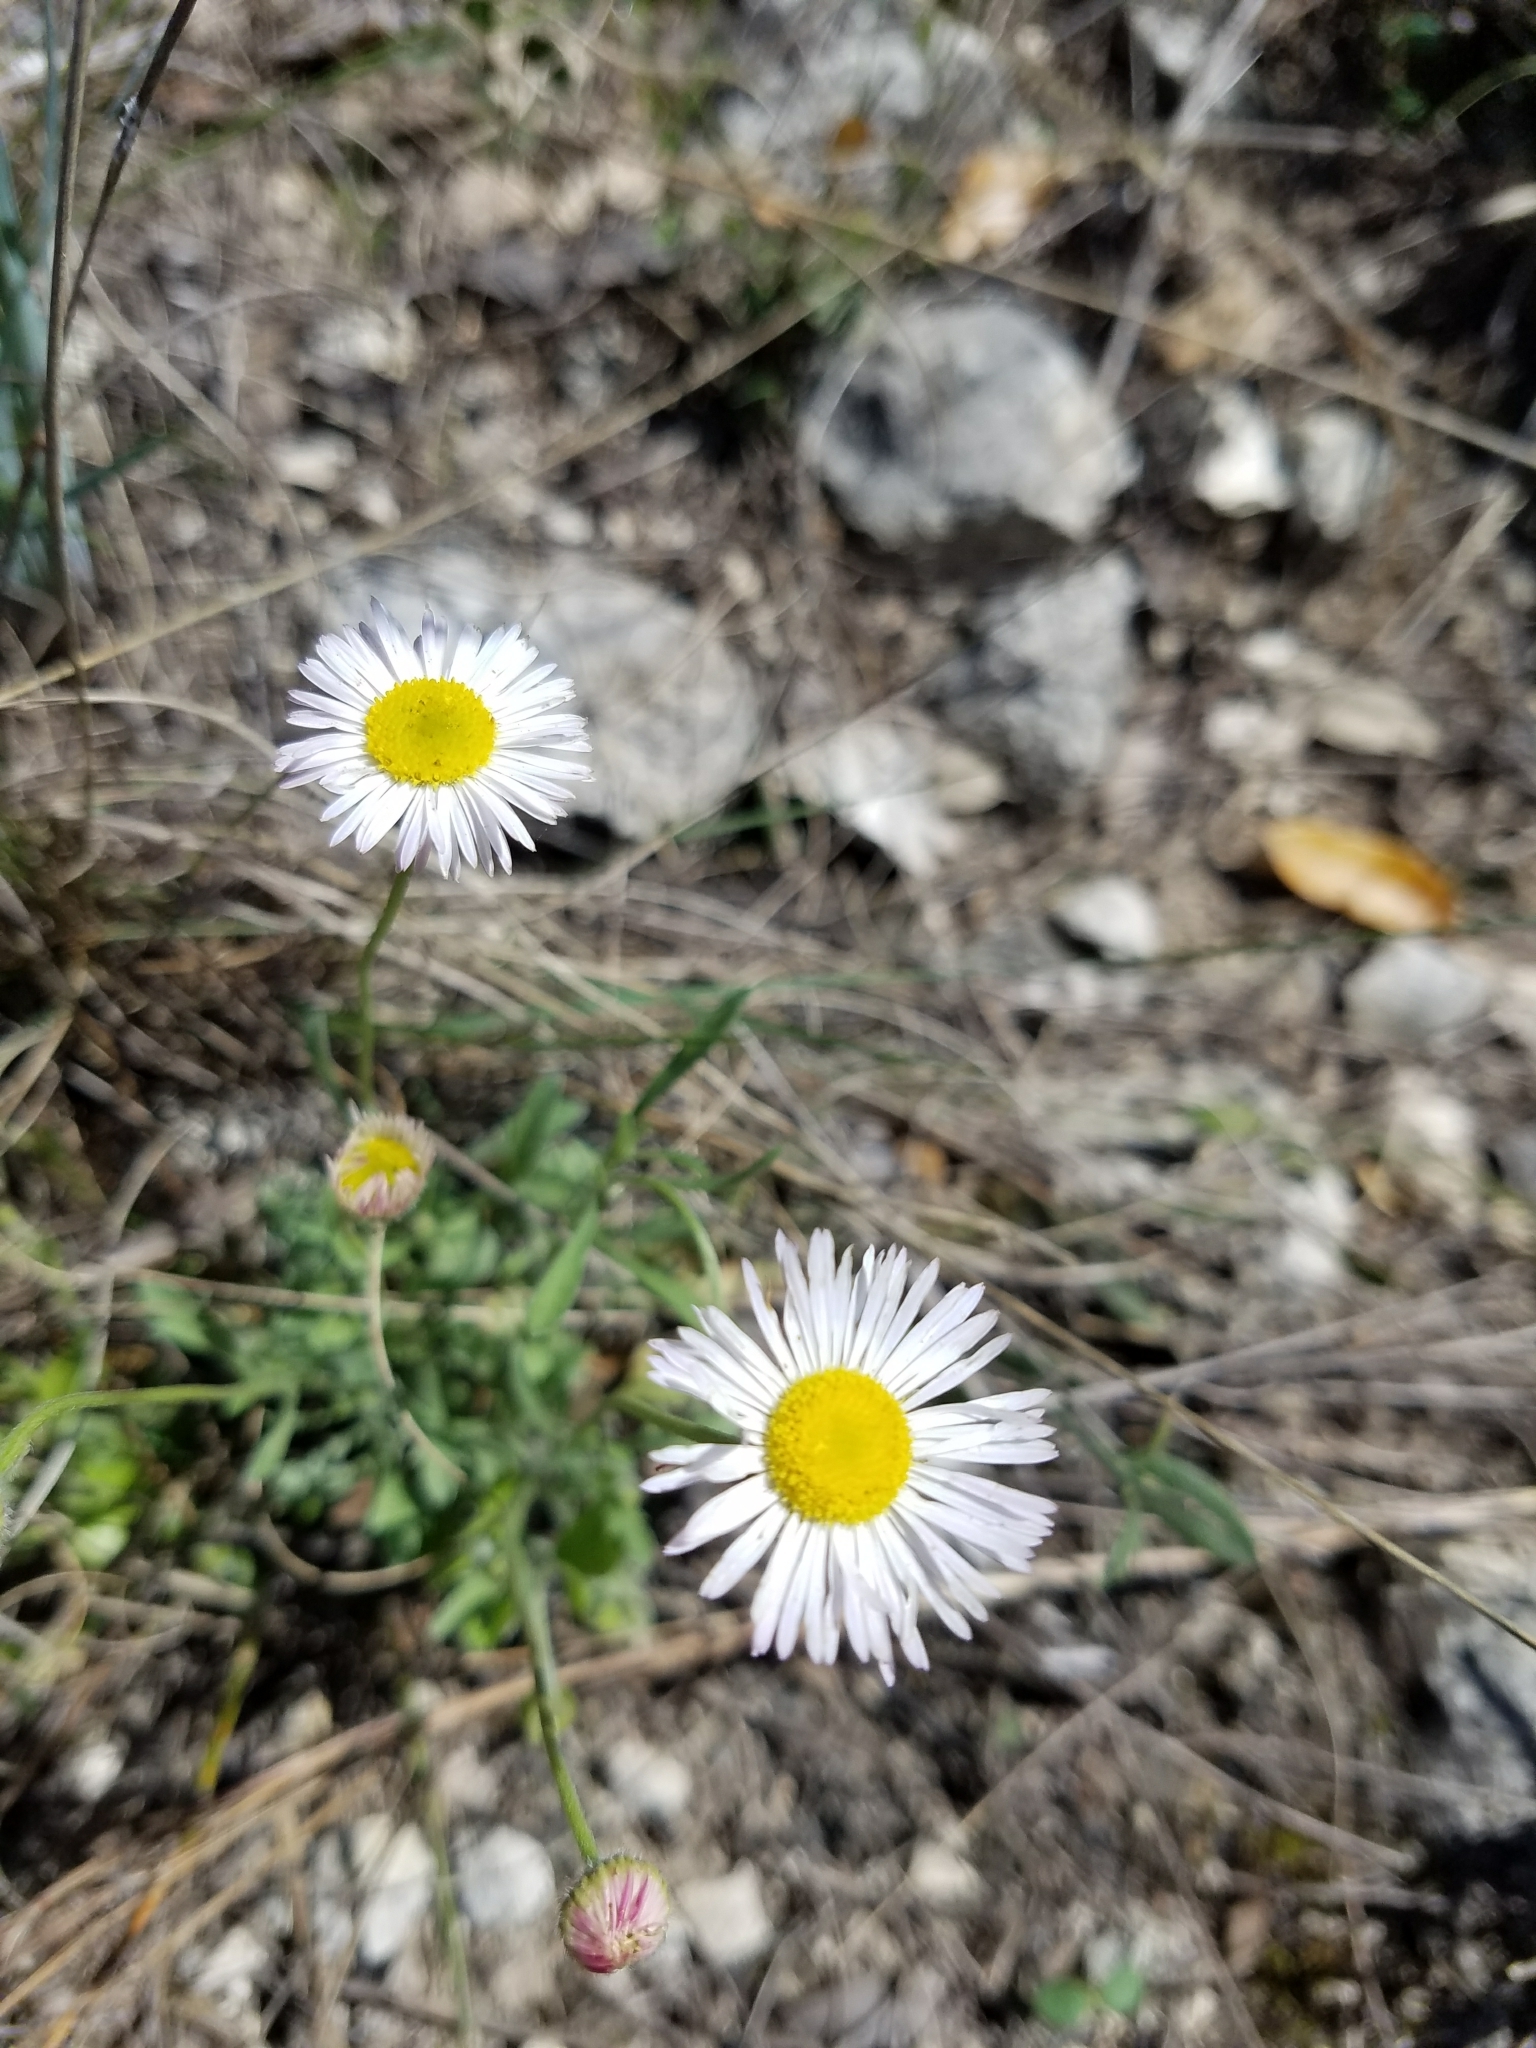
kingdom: Plantae
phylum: Tracheophyta
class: Magnoliopsida
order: Asterales
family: Asteraceae
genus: Erigeron
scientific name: Erigeron modestus
